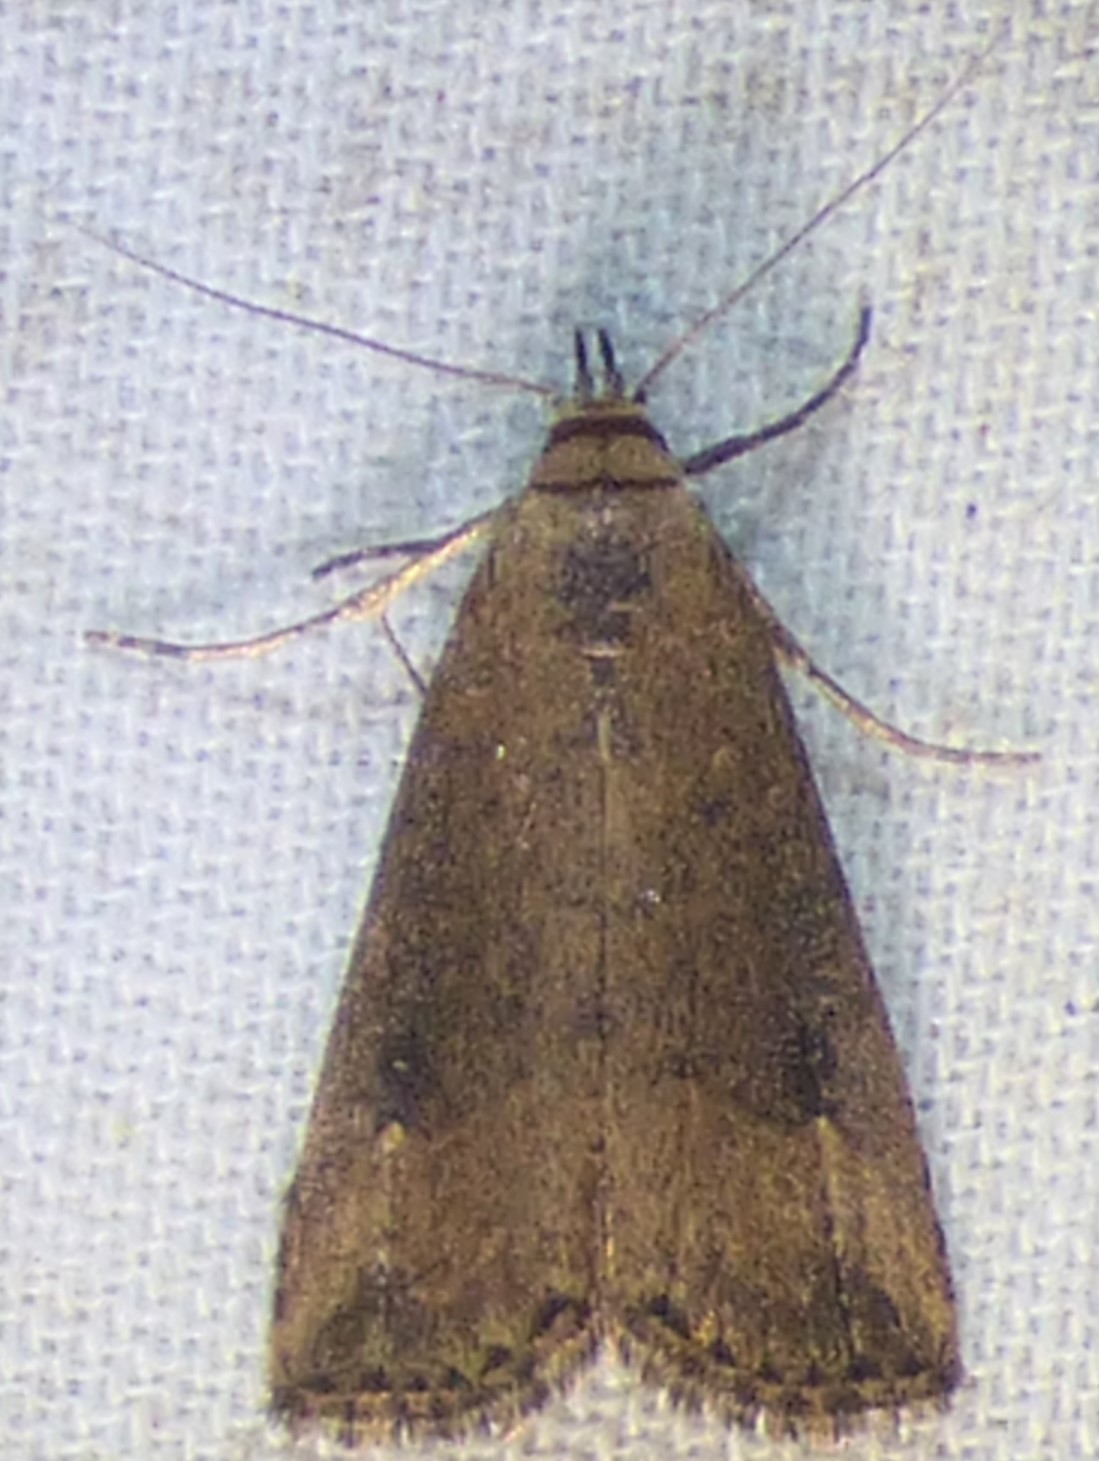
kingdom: Animalia
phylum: Arthropoda
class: Insecta
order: Lepidoptera
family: Erebidae
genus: Schrankia
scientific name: Schrankia
